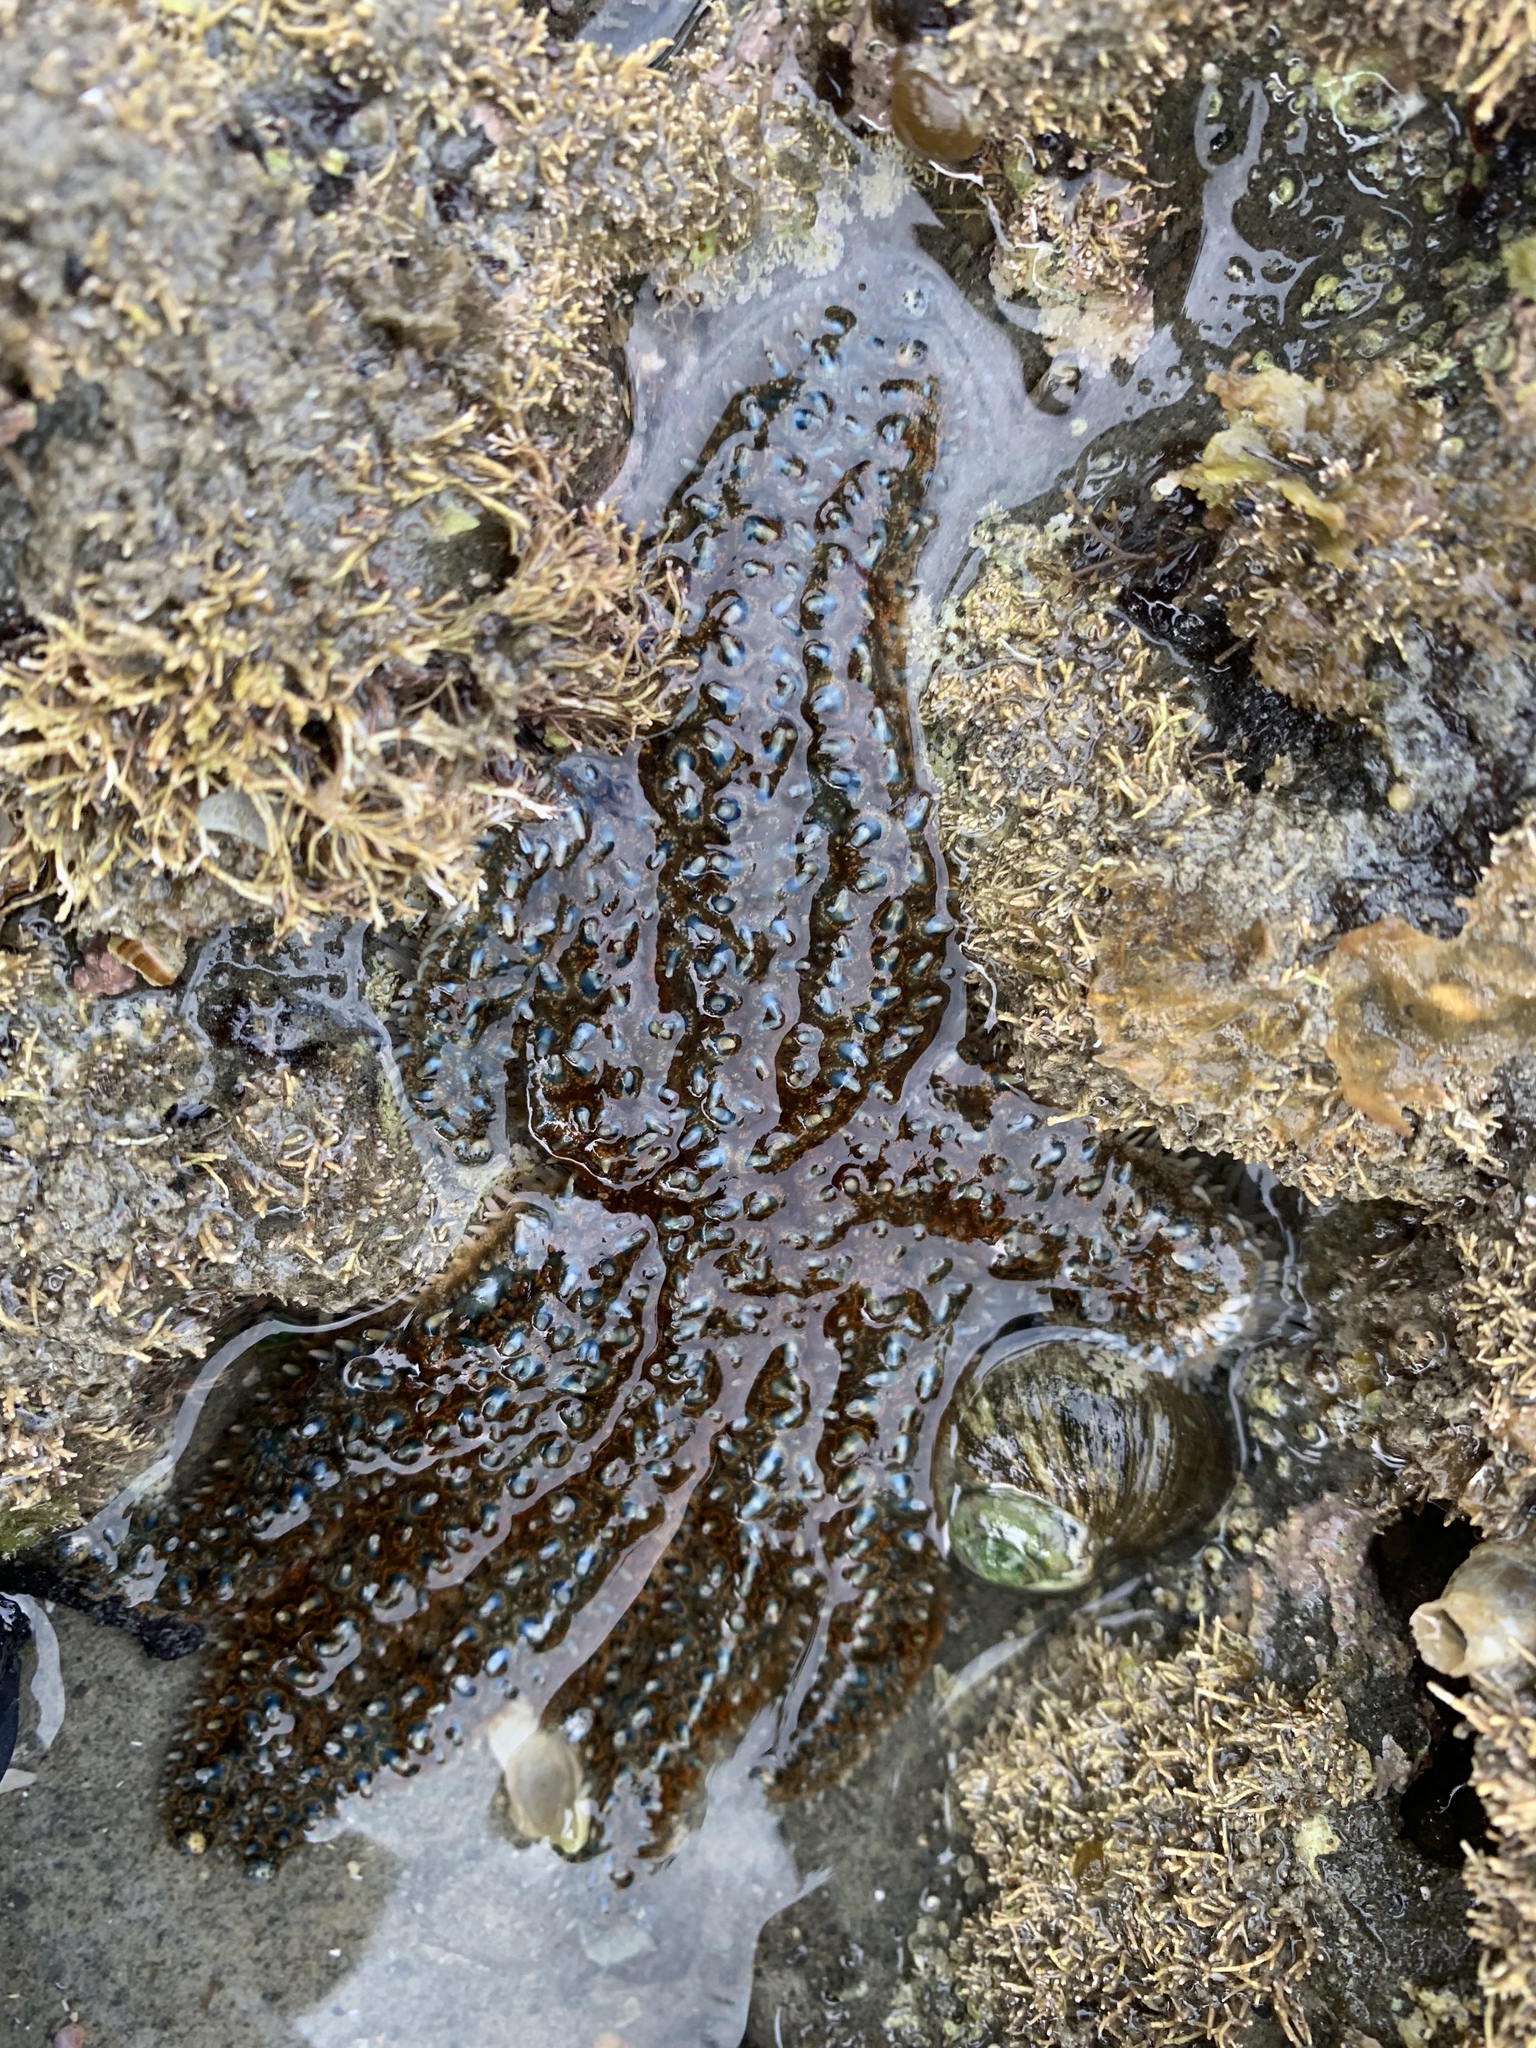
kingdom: Animalia
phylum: Echinodermata
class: Asteroidea
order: Forcipulatida
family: Asteriidae
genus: Coscinasterias
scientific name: Coscinasterias muricata
